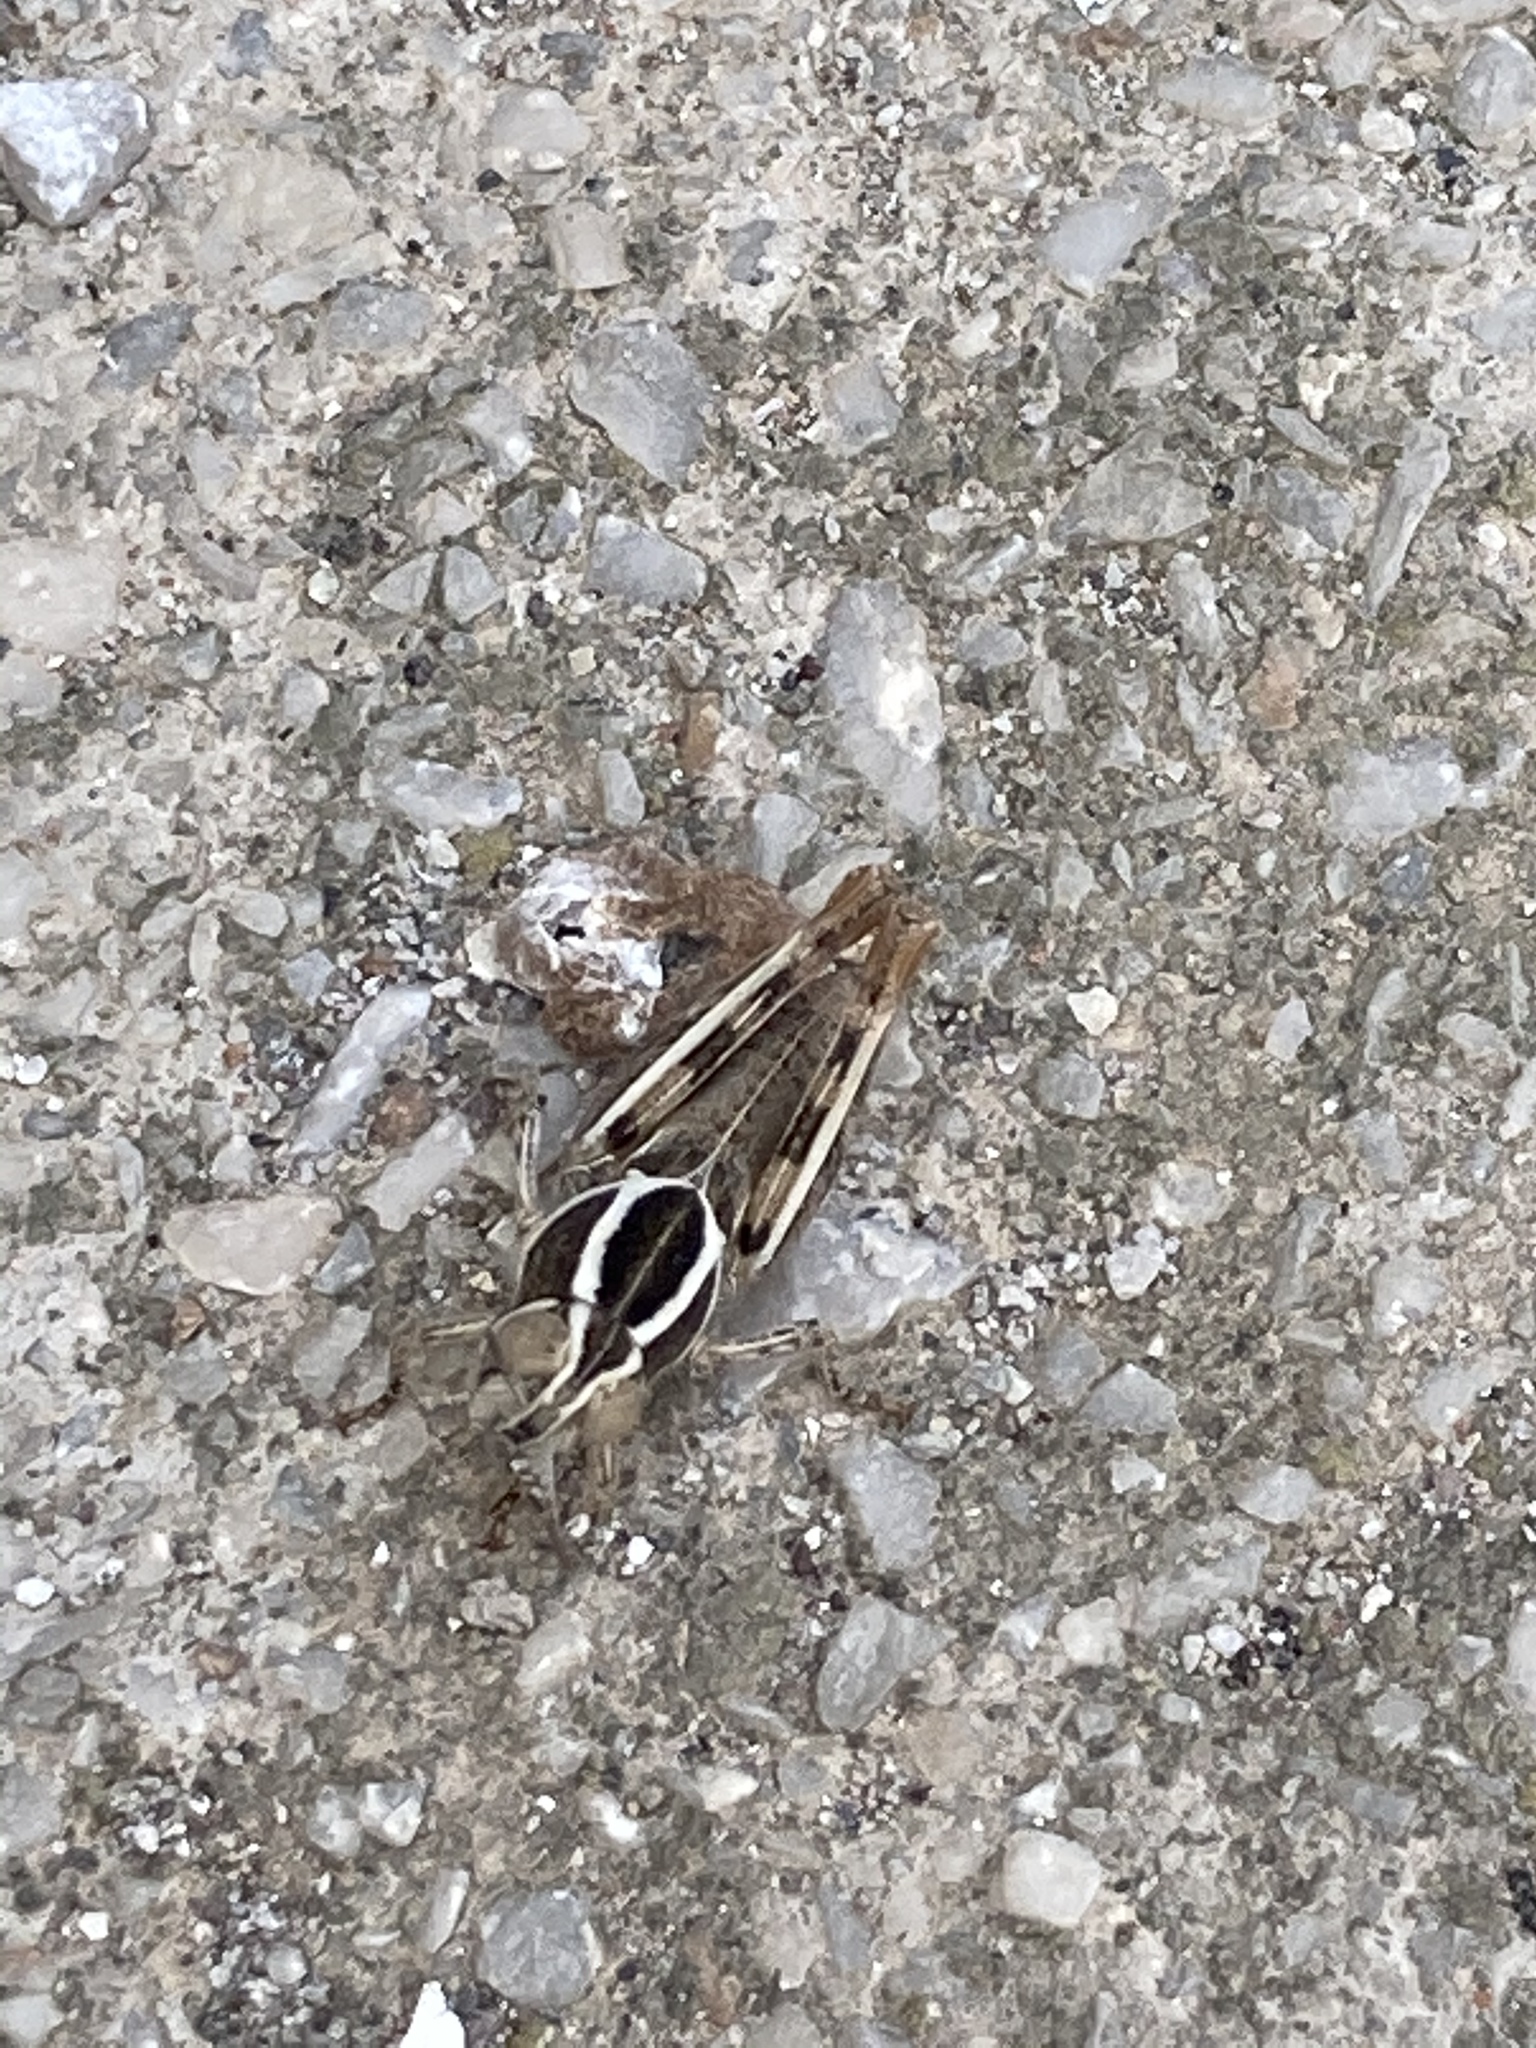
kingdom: Animalia
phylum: Arthropoda
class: Insecta
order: Orthoptera
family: Acrididae
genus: Calliptamus
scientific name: Calliptamus
